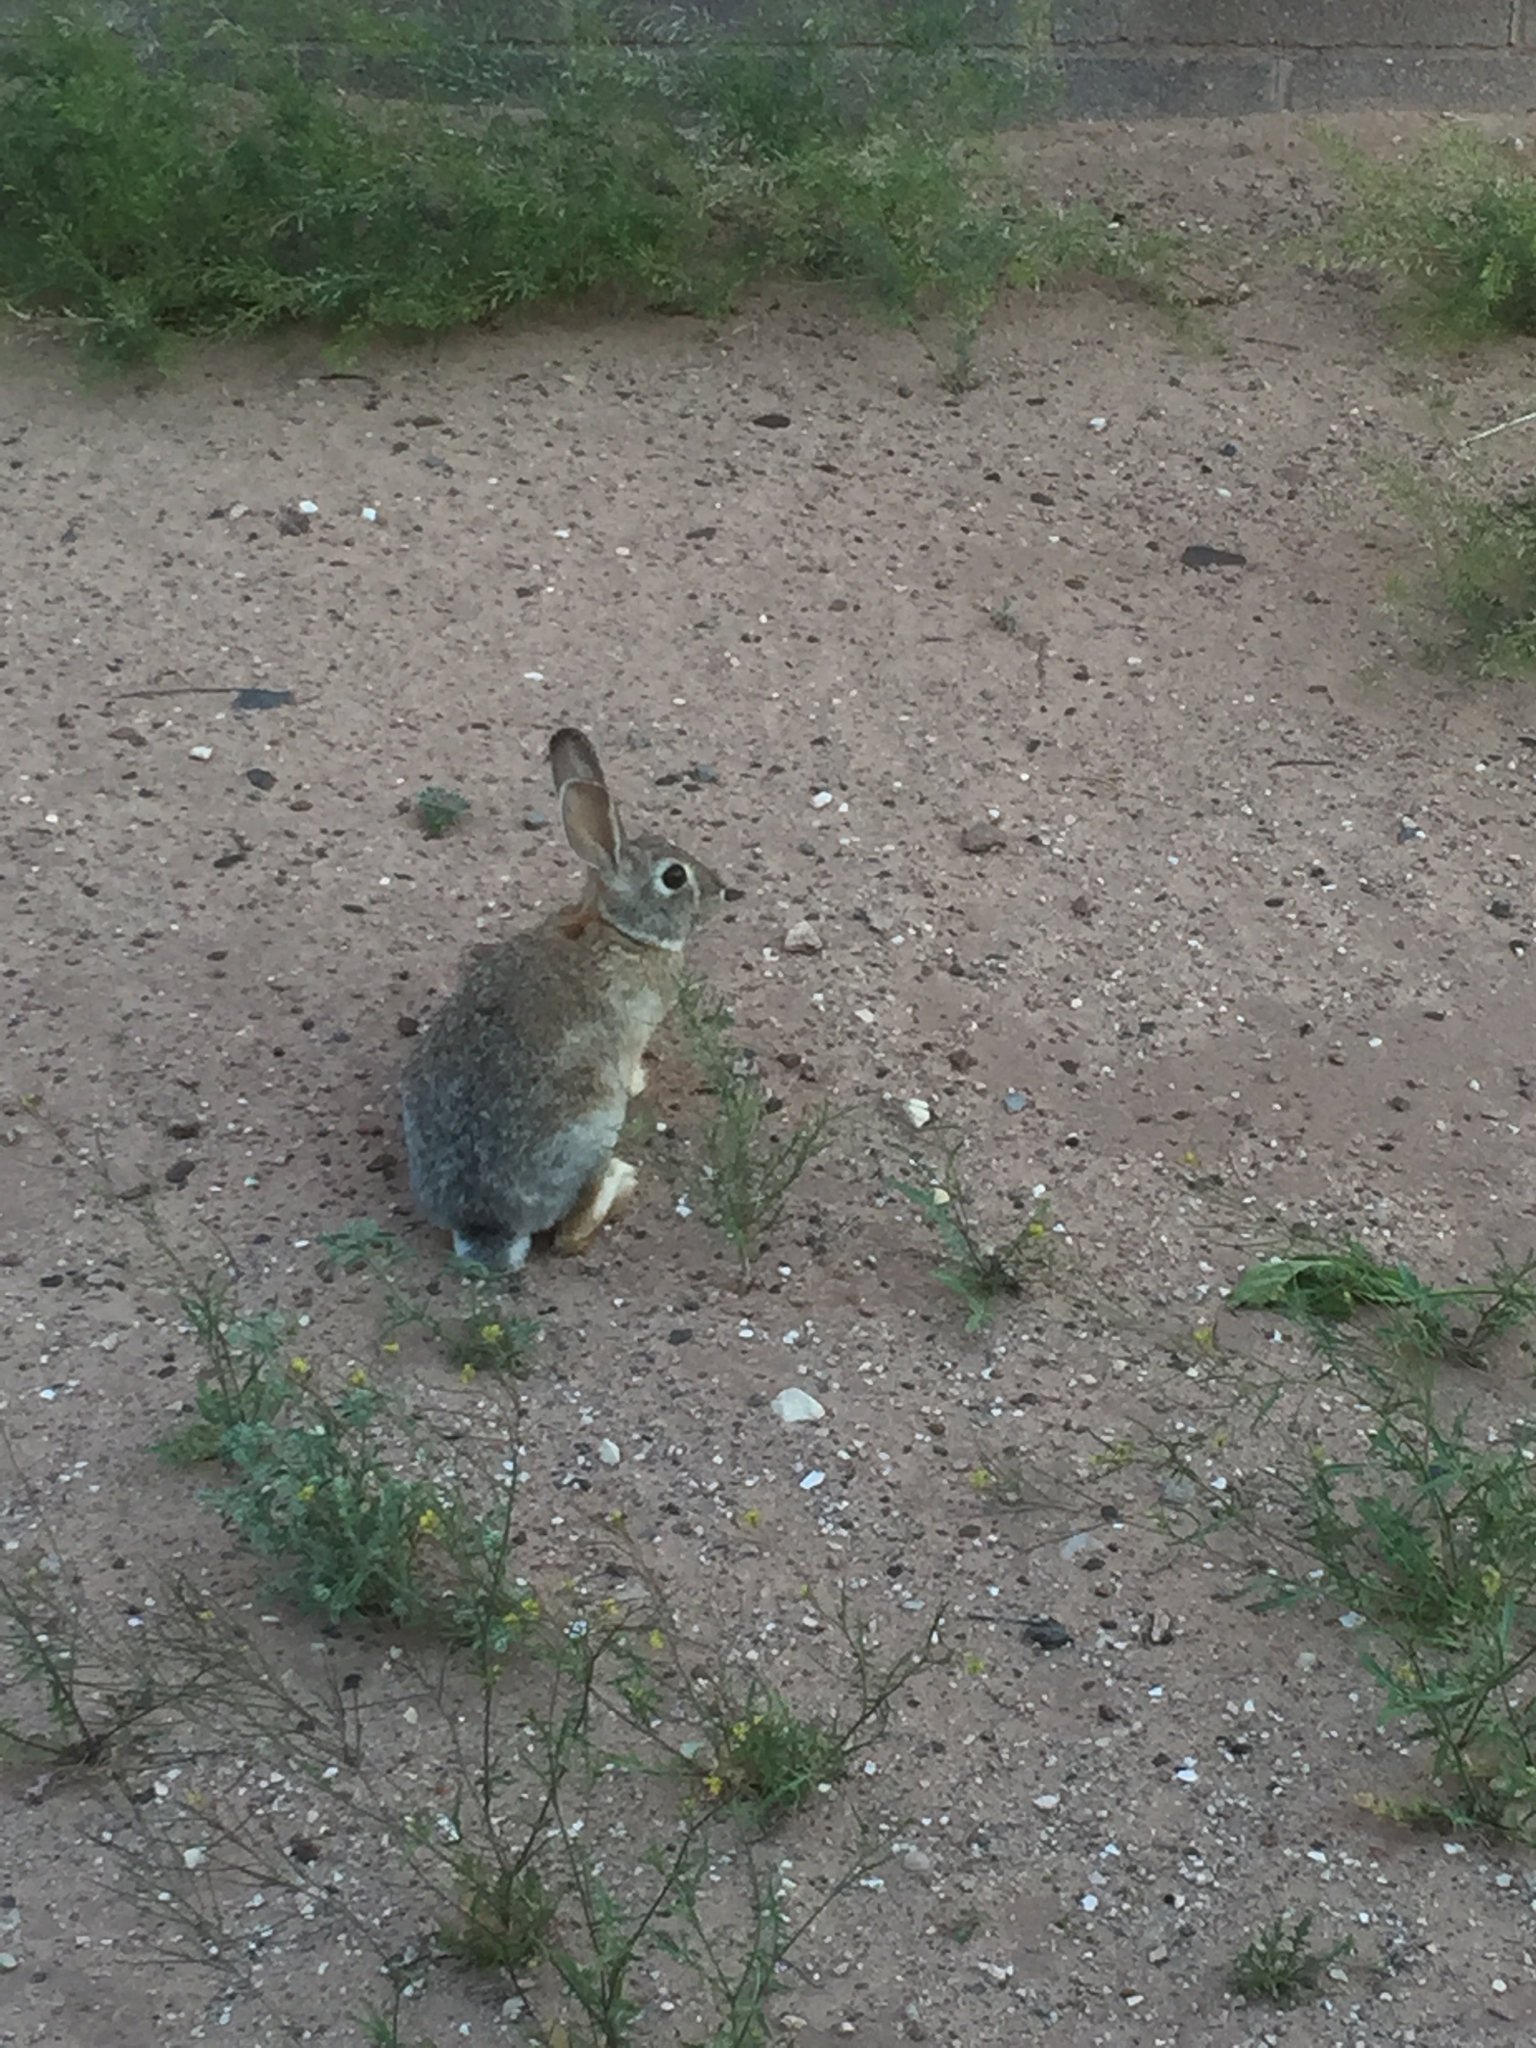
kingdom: Animalia
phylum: Chordata
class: Mammalia
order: Lagomorpha
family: Leporidae
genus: Sylvilagus
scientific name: Sylvilagus audubonii
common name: Desert cottontail
